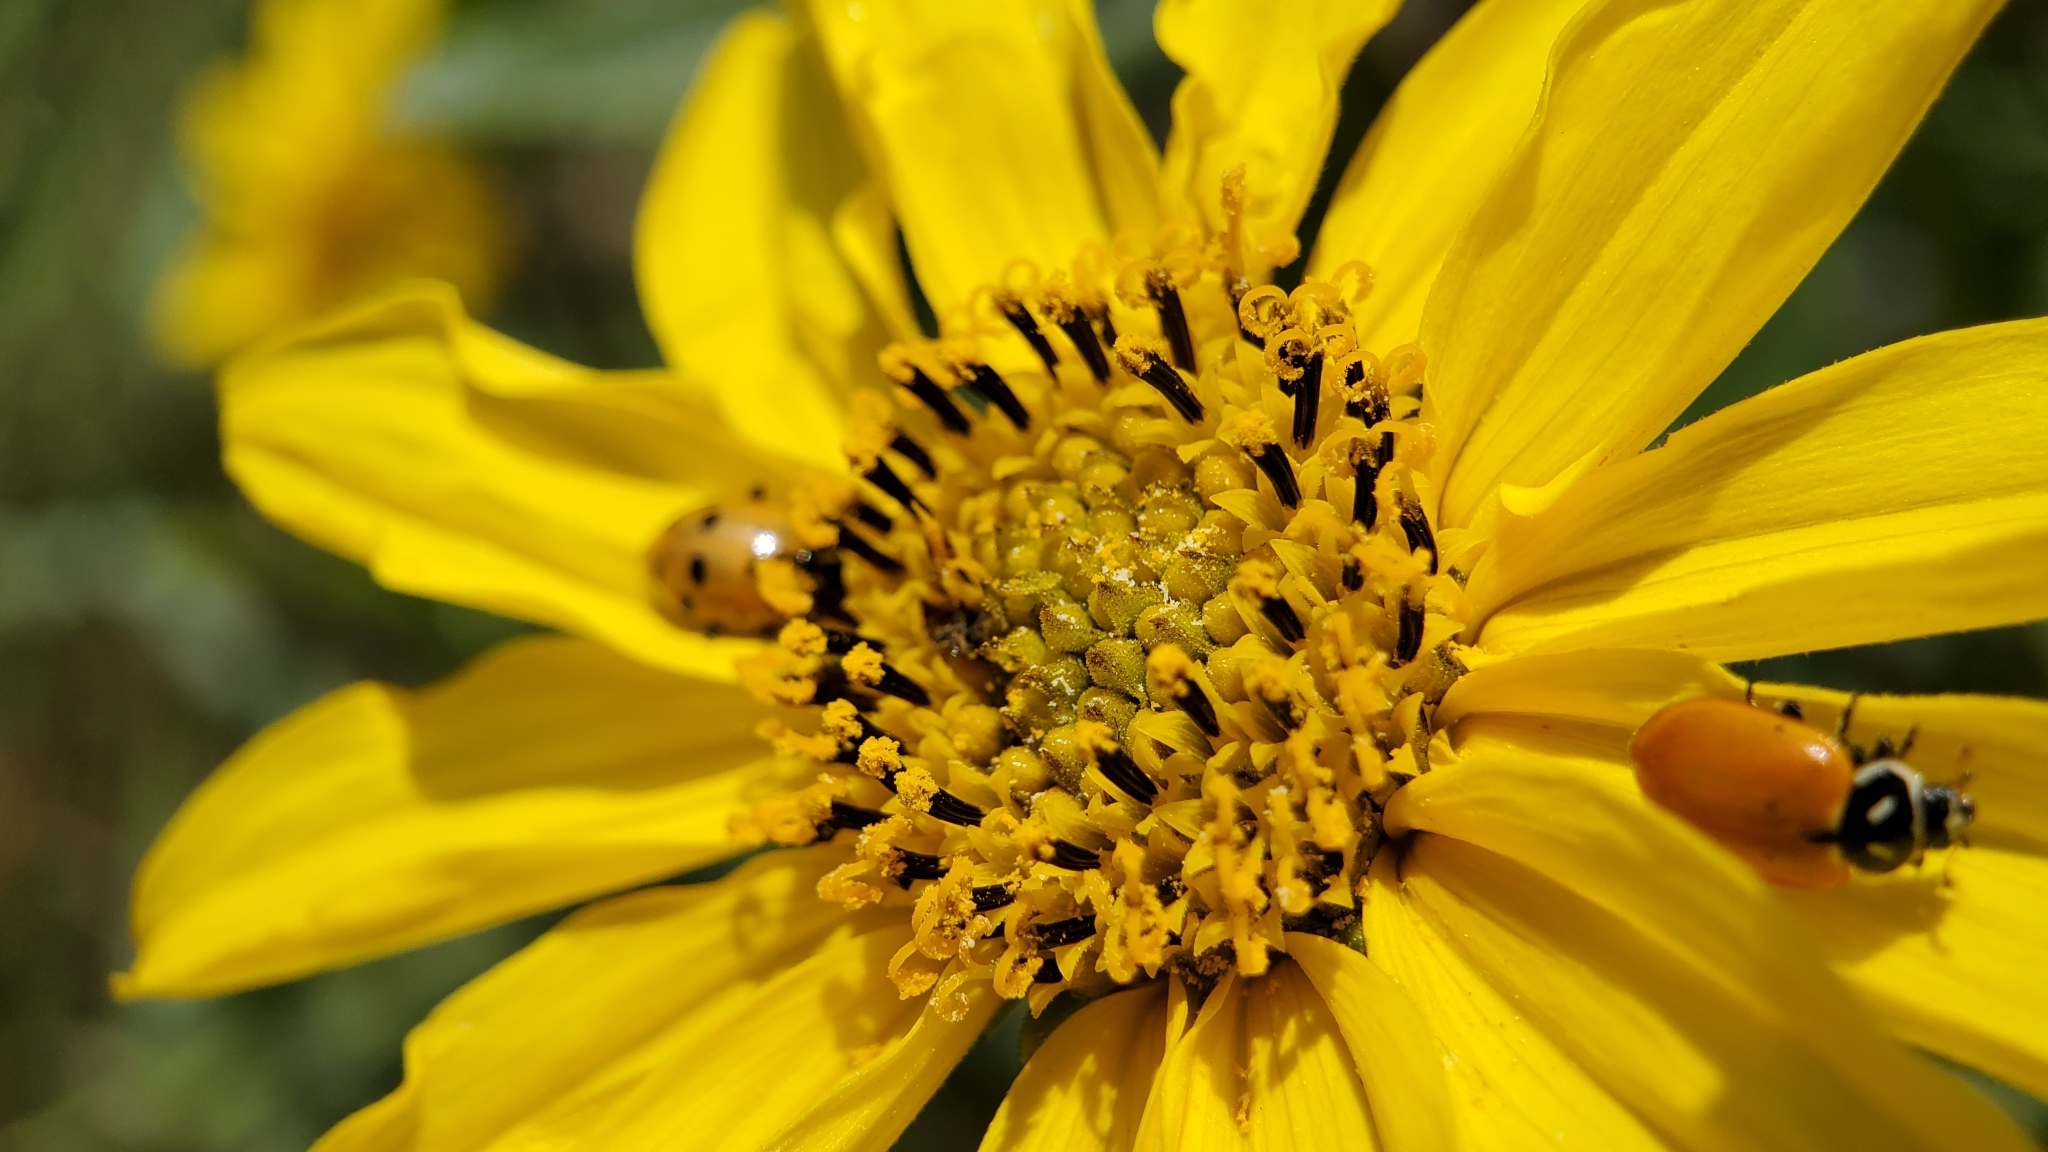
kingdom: Plantae
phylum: Tracheophyta
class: Magnoliopsida
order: Asterales
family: Asteraceae
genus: Helianthus
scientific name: Helianthus gracilentus
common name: Slender sunflower
